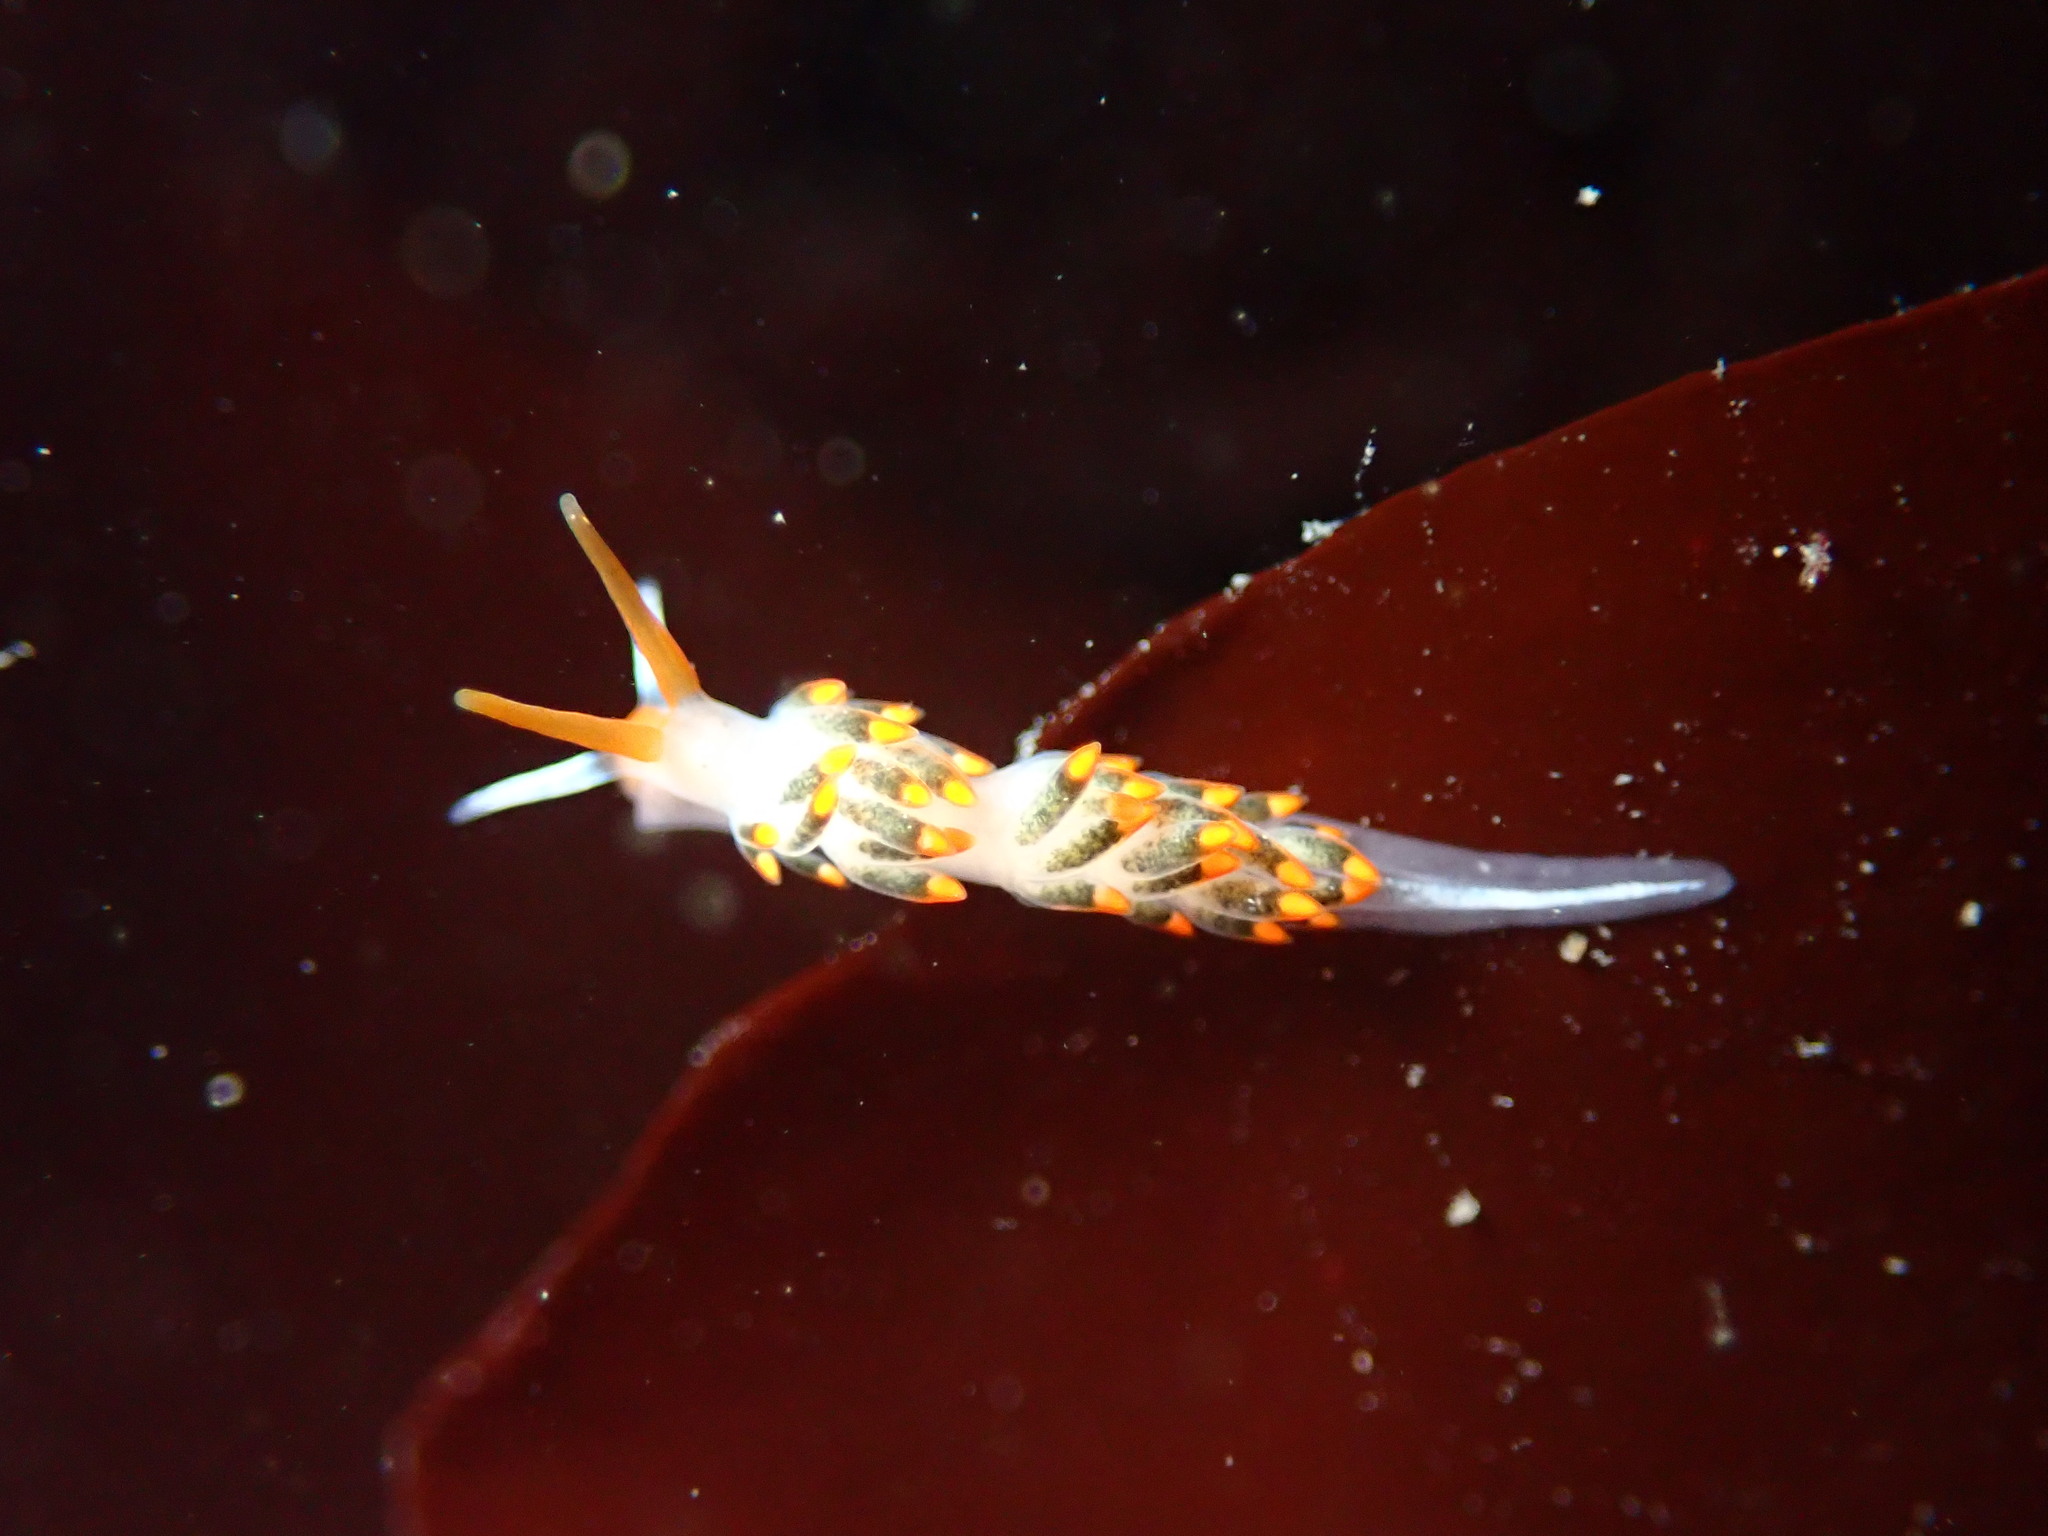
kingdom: Animalia
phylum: Mollusca
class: Gastropoda
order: Nudibranchia
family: Trinchesiidae
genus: Diaphoreolis
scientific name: Diaphoreolis lagunae
